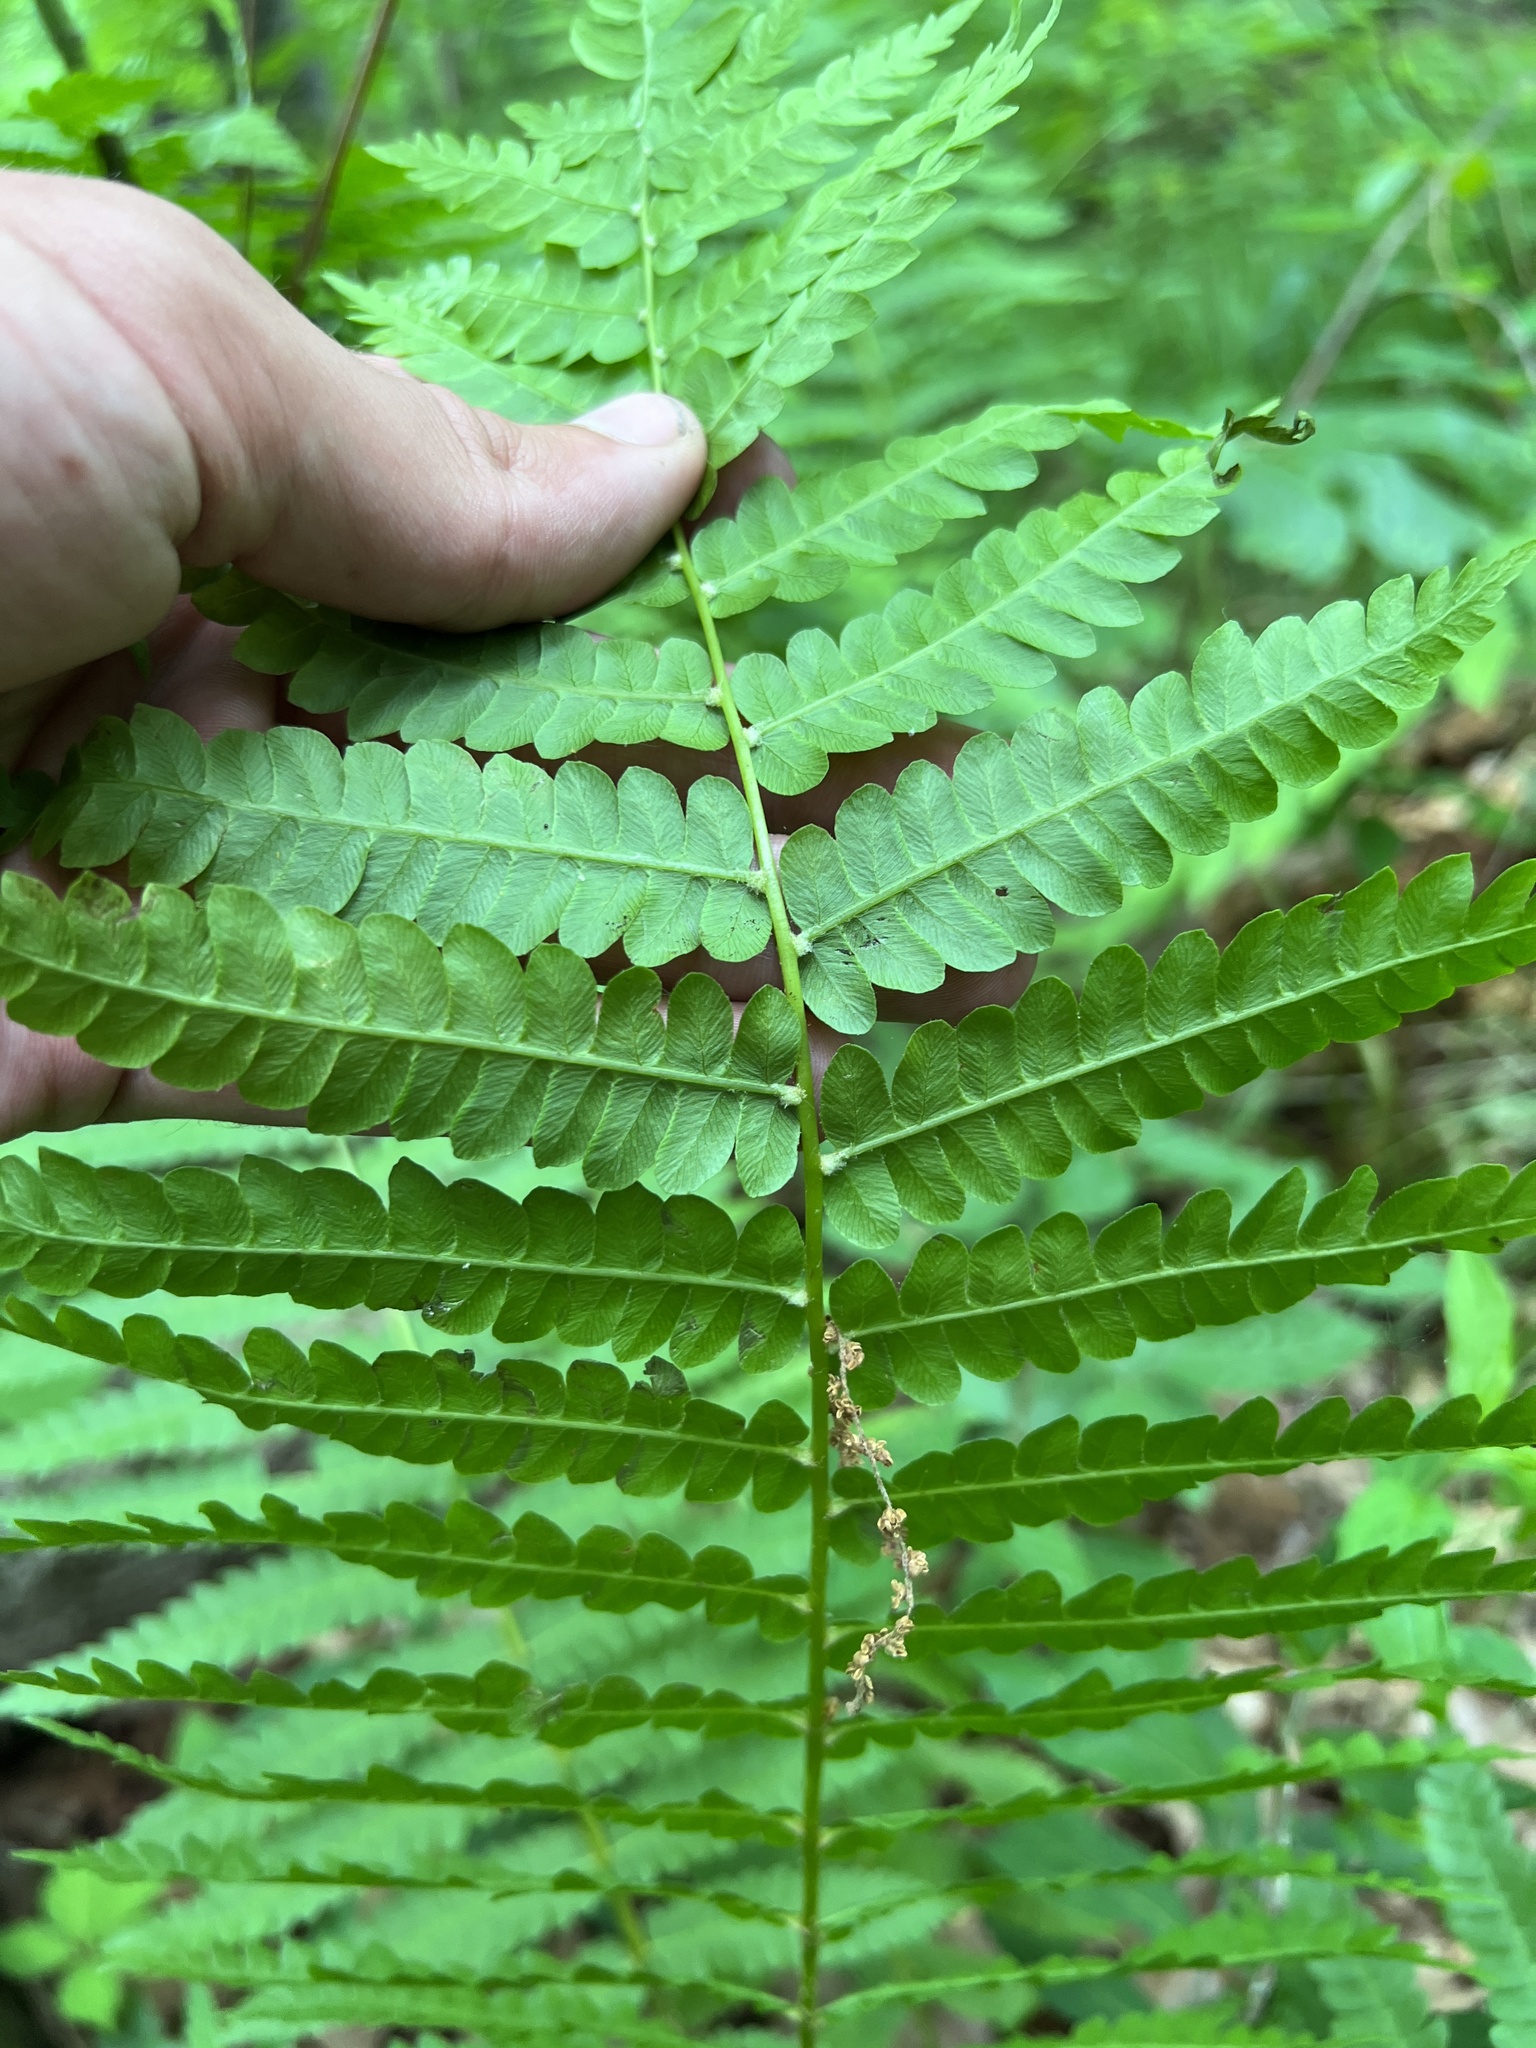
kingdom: Plantae
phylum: Tracheophyta
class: Polypodiopsida
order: Osmundales
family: Osmundaceae
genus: Osmundastrum
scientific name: Osmundastrum cinnamomeum
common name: Cinnamon fern
